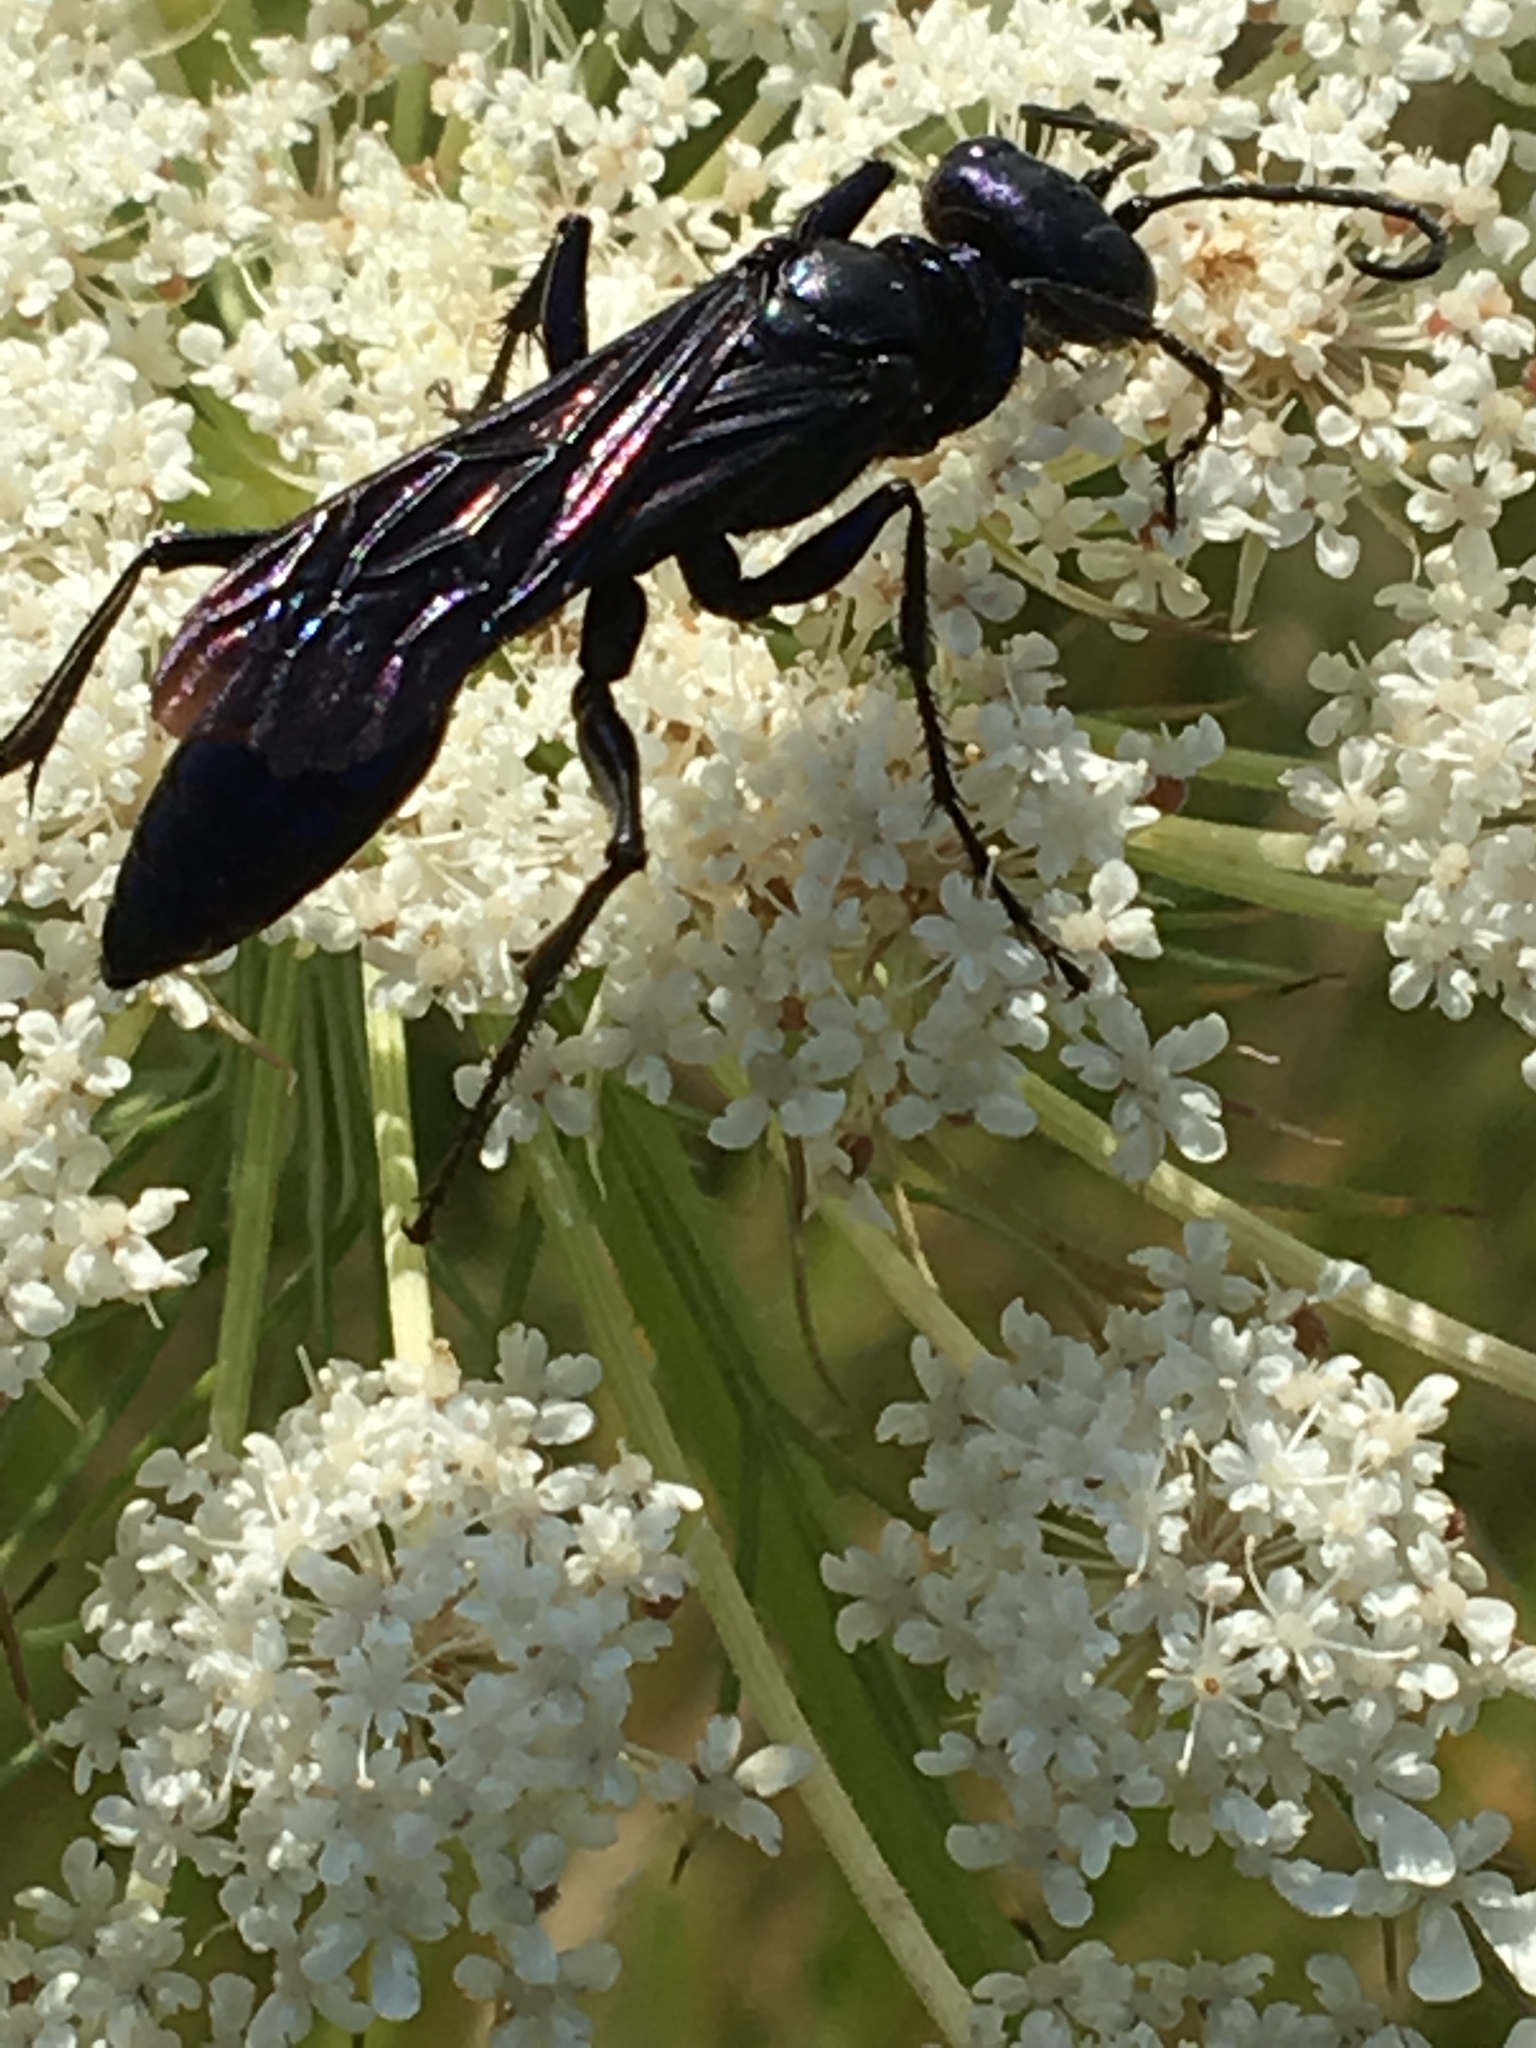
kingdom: Animalia
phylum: Arthropoda
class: Insecta
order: Hymenoptera
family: Sphecidae
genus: Chalybion
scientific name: Chalybion californicum
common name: Mud dauber
